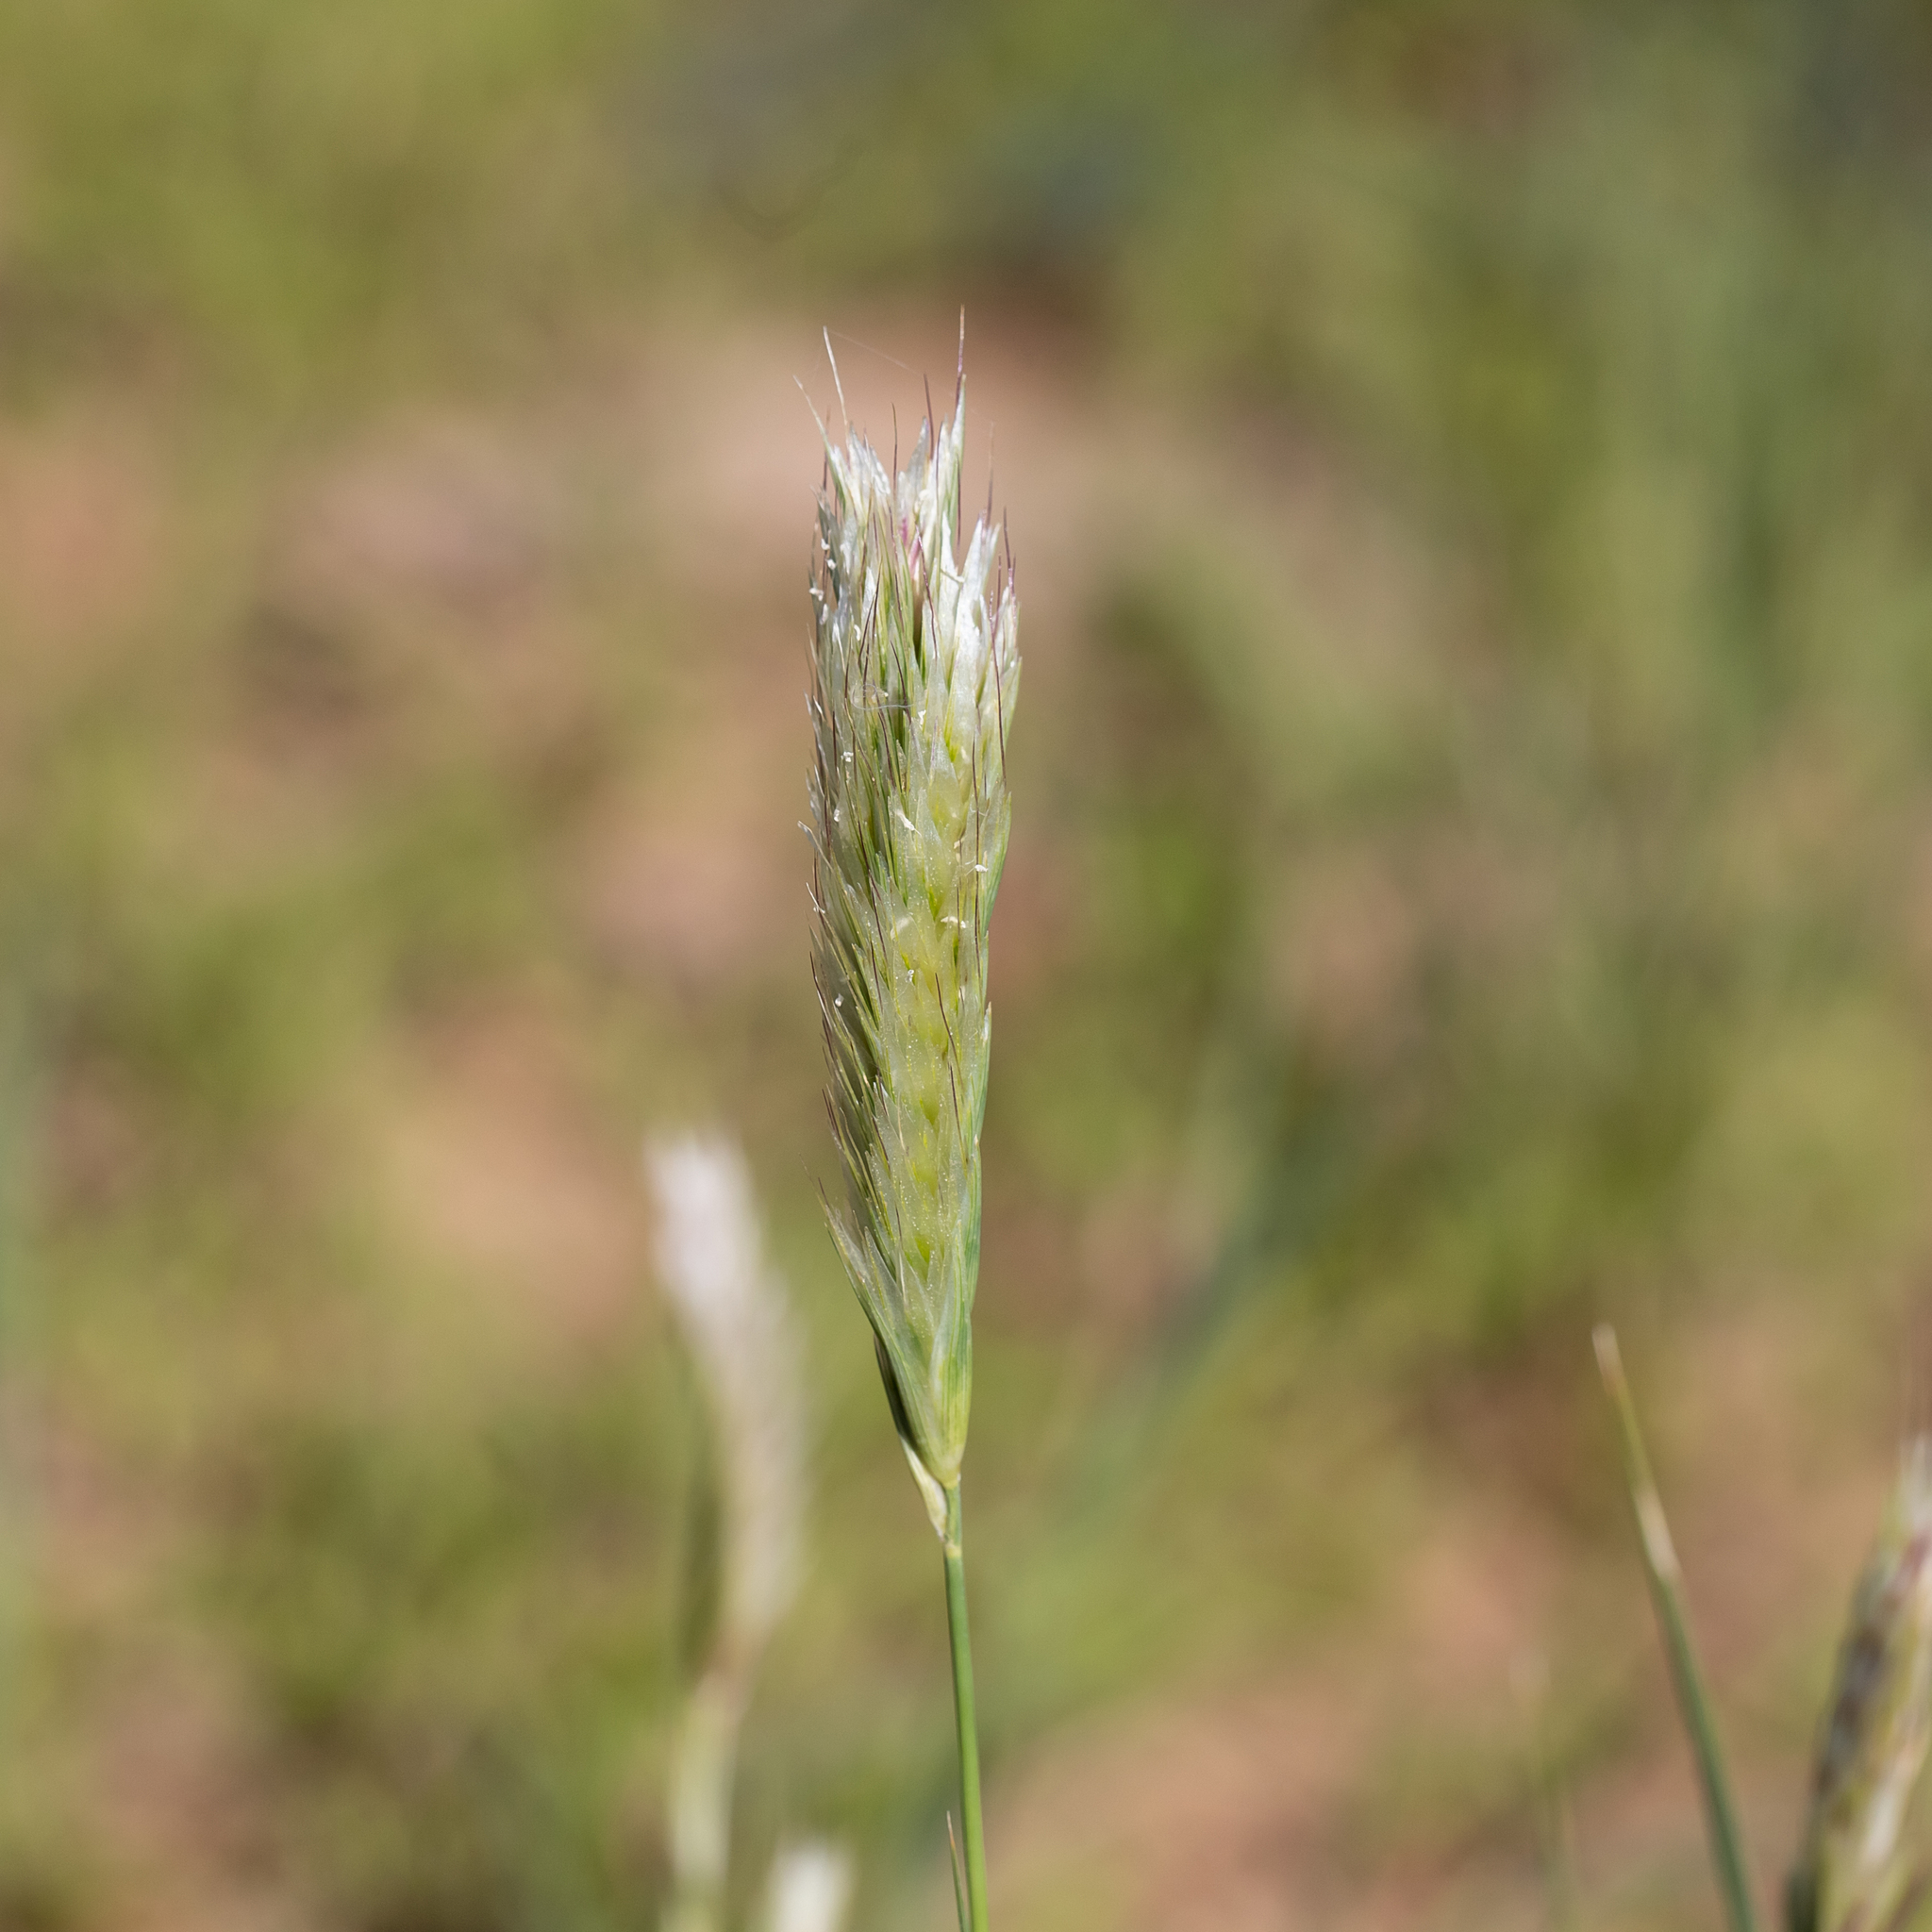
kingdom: Plantae
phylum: Tracheophyta
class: Liliopsida
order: Poales
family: Poaceae
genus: Astrebla
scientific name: Astrebla pectinata
